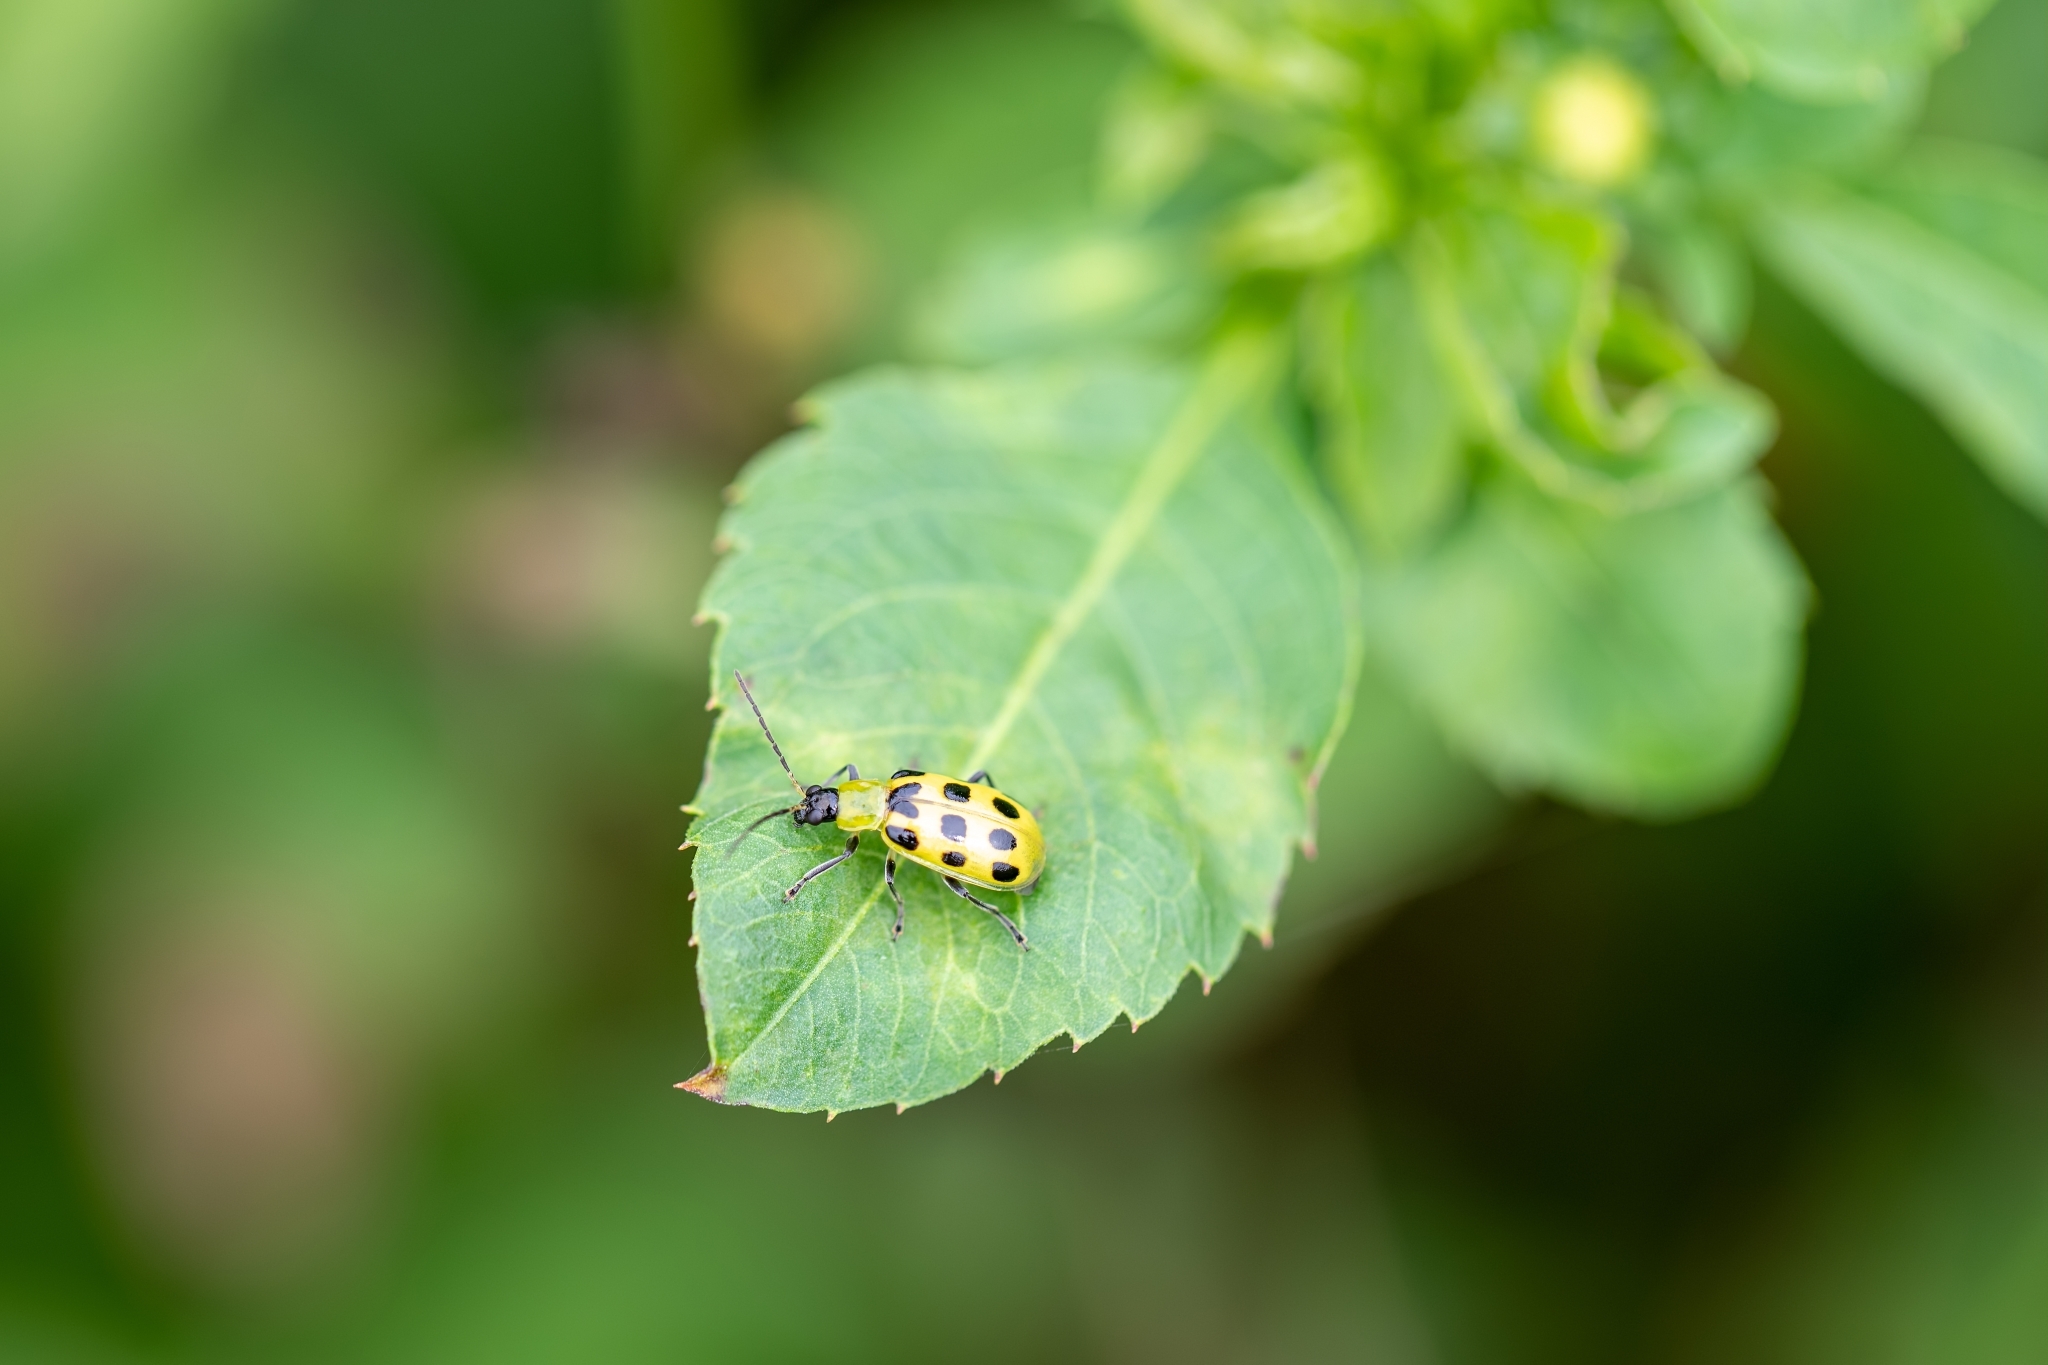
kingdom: Animalia
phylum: Arthropoda
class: Insecta
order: Coleoptera
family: Chrysomelidae
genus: Diabrotica
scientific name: Diabrotica undecimpunctata
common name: Spotted cucumber beetle
